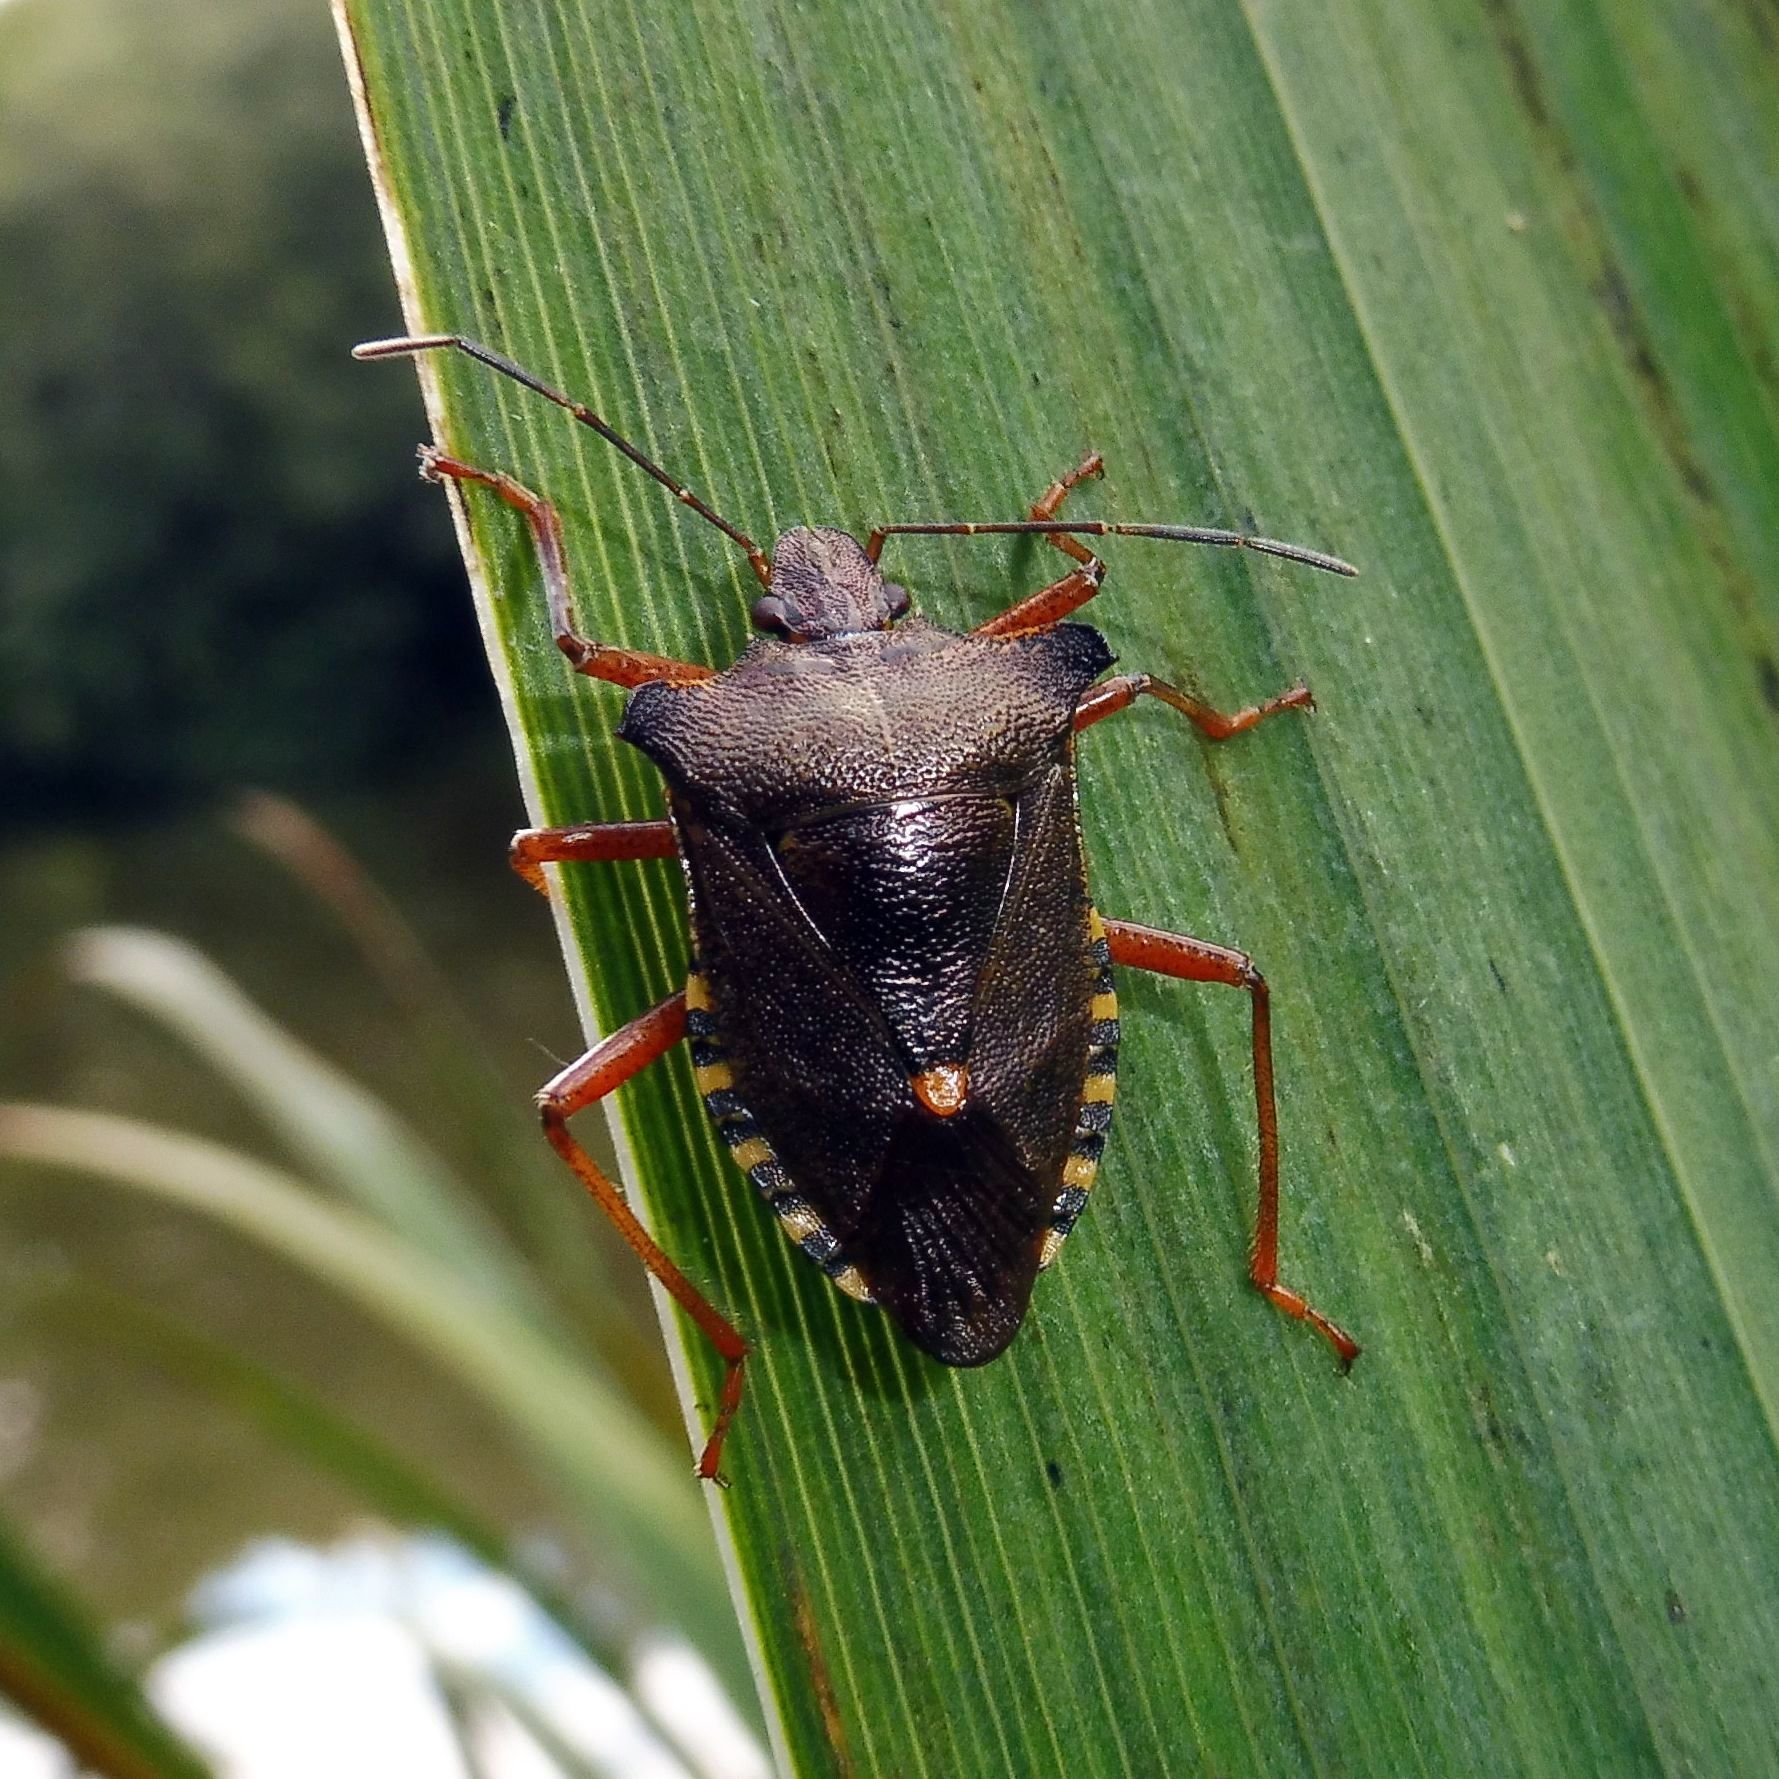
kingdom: Animalia
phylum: Arthropoda
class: Insecta
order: Hemiptera
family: Pentatomidae
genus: Pentatoma
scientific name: Pentatoma rufipes
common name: Forest bug
